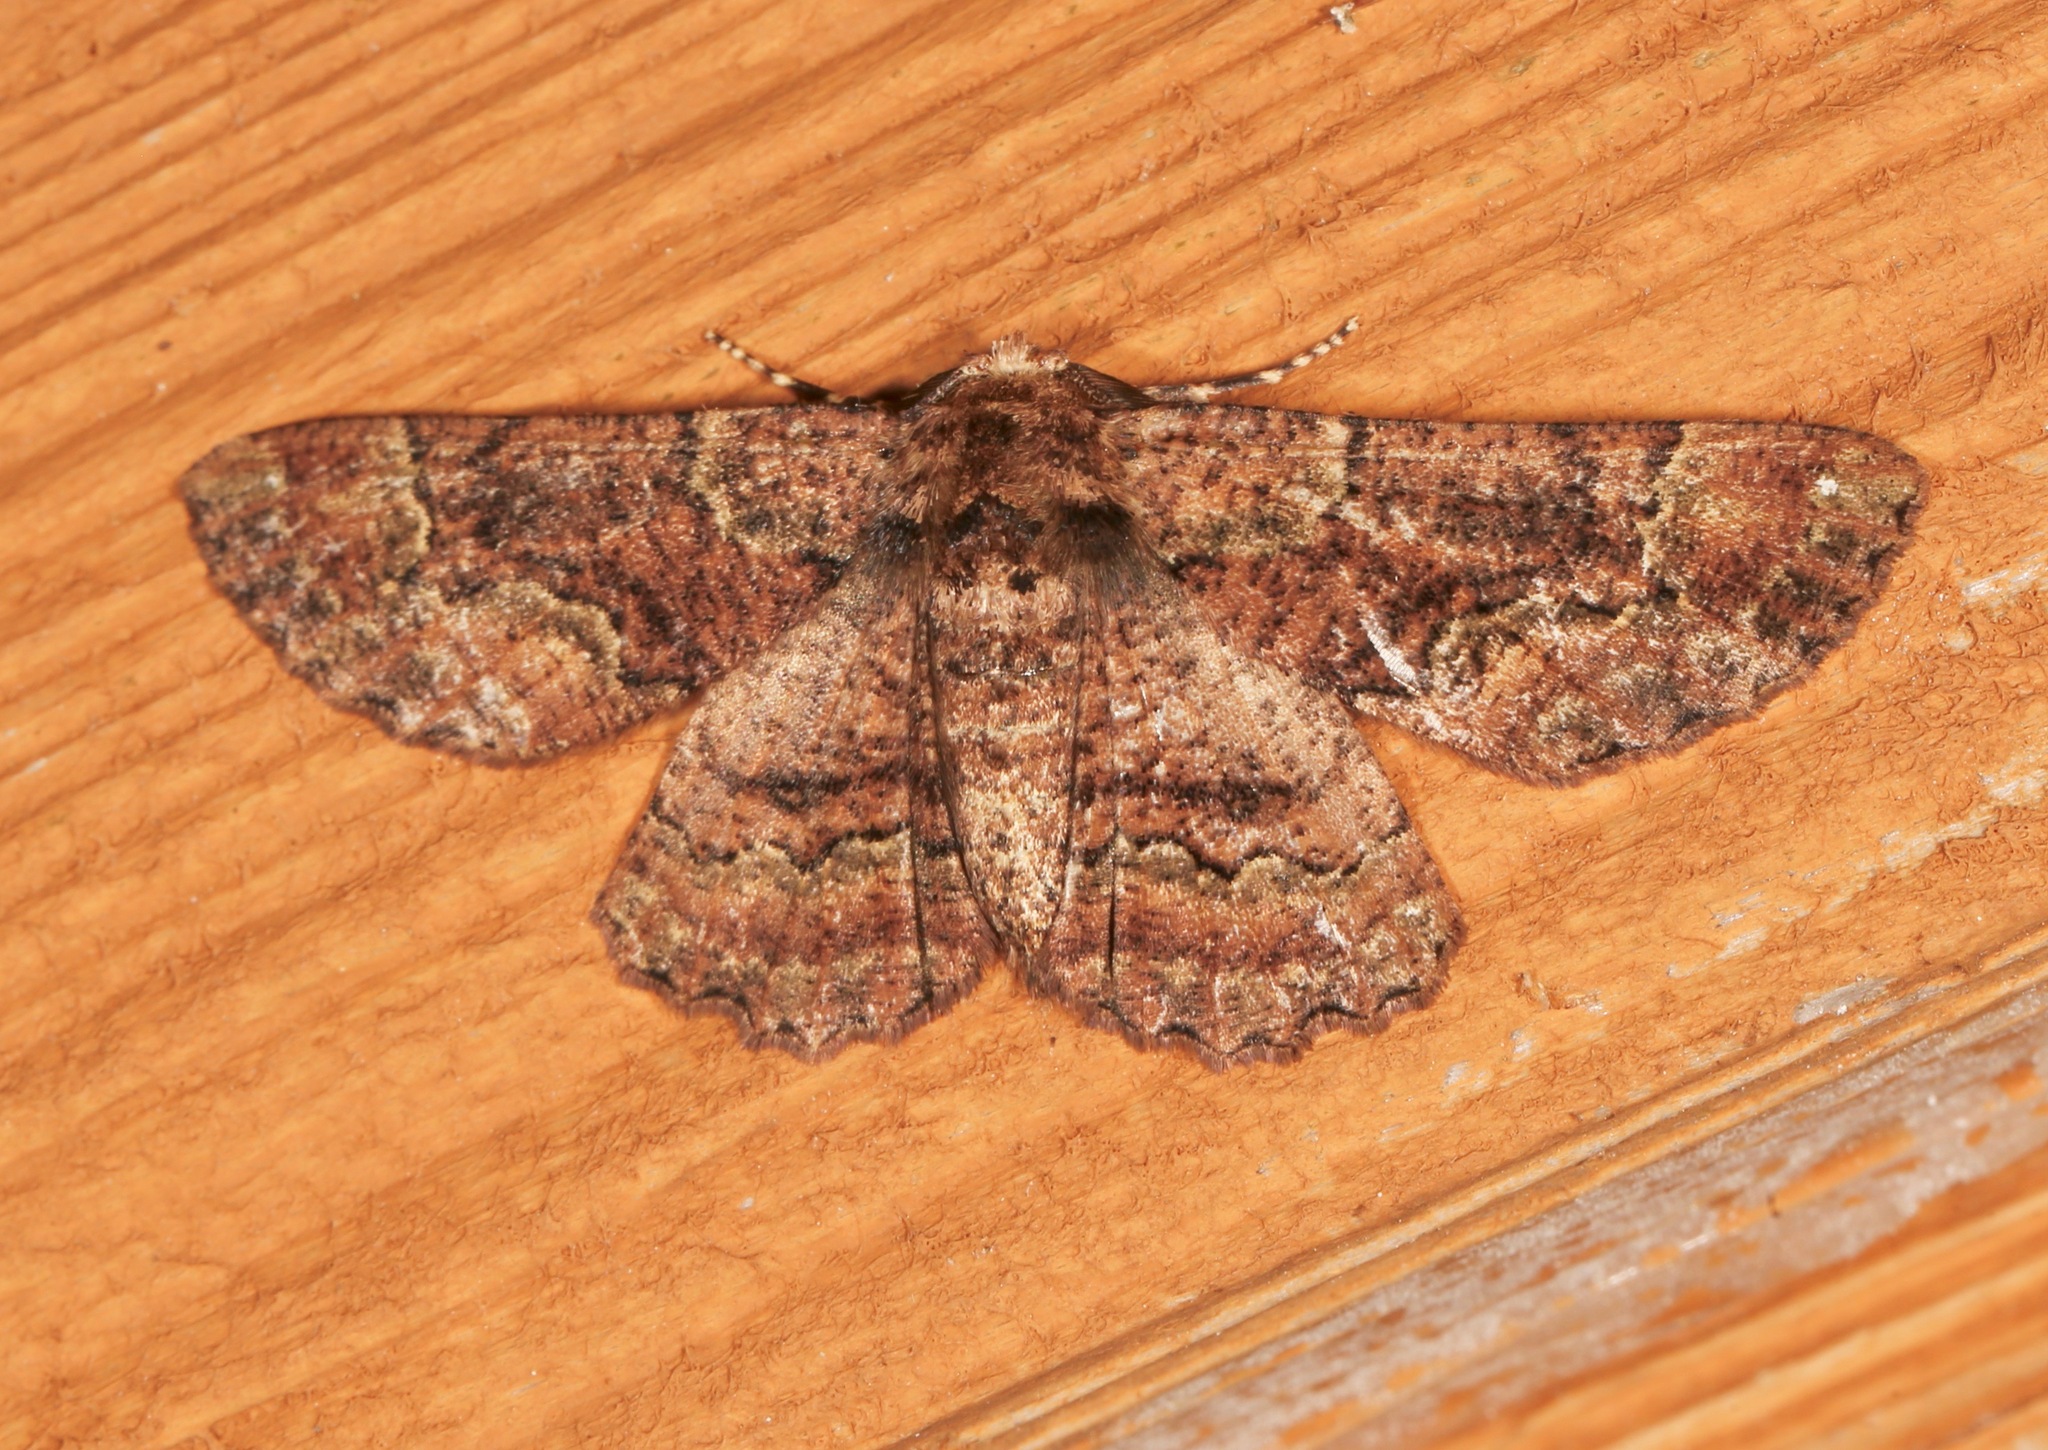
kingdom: Animalia
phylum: Arthropoda
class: Insecta
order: Lepidoptera
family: Geometridae
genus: Phaeoura
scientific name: Phaeoura quernaria
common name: Oak beauty
